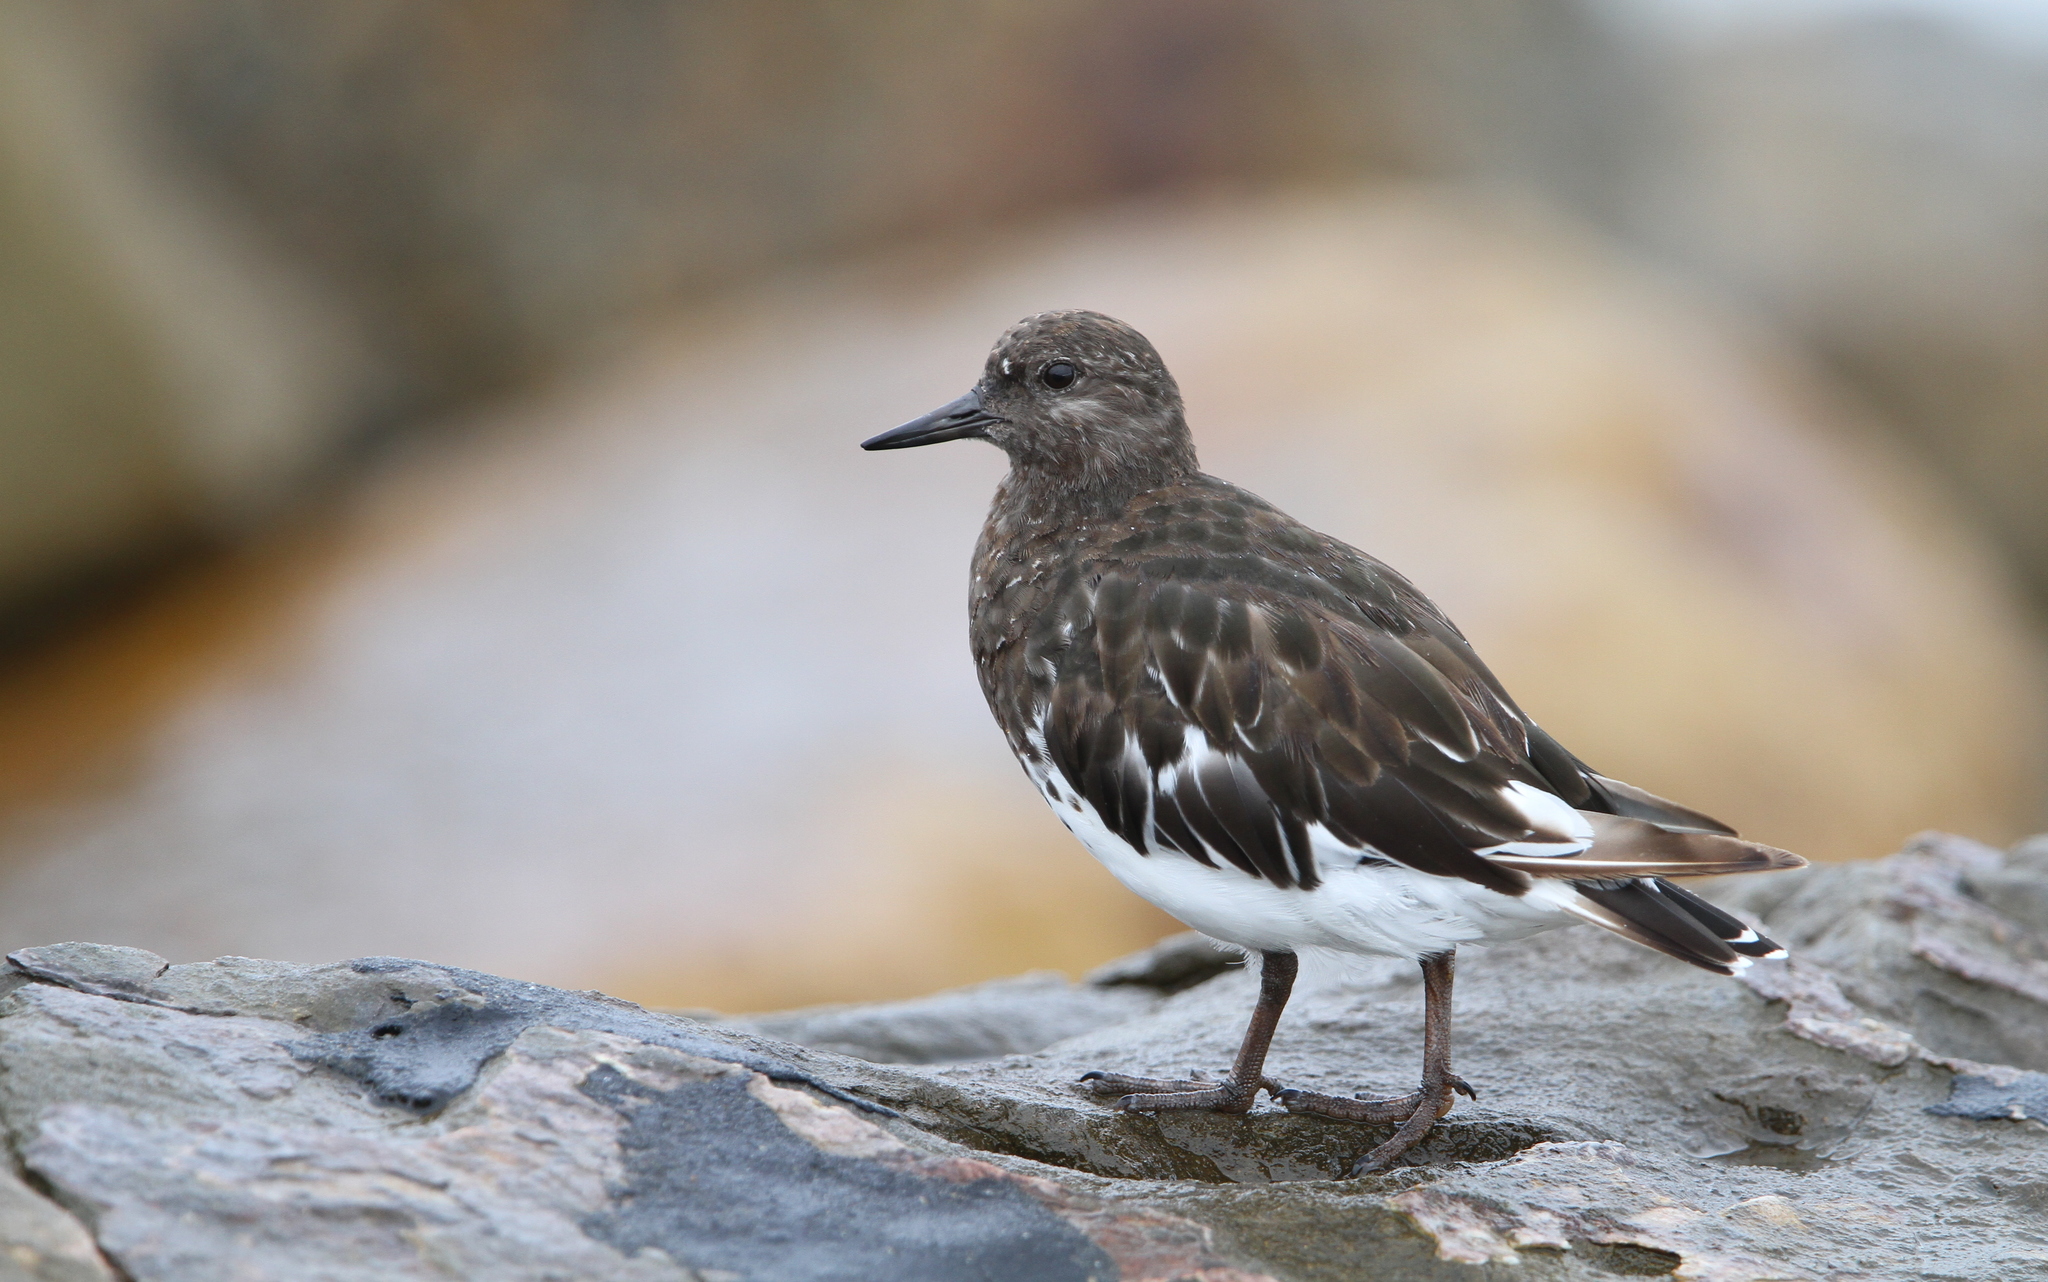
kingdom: Animalia
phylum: Chordata
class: Aves
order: Charadriiformes
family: Scolopacidae
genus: Arenaria
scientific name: Arenaria melanocephala
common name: Black turnstone
